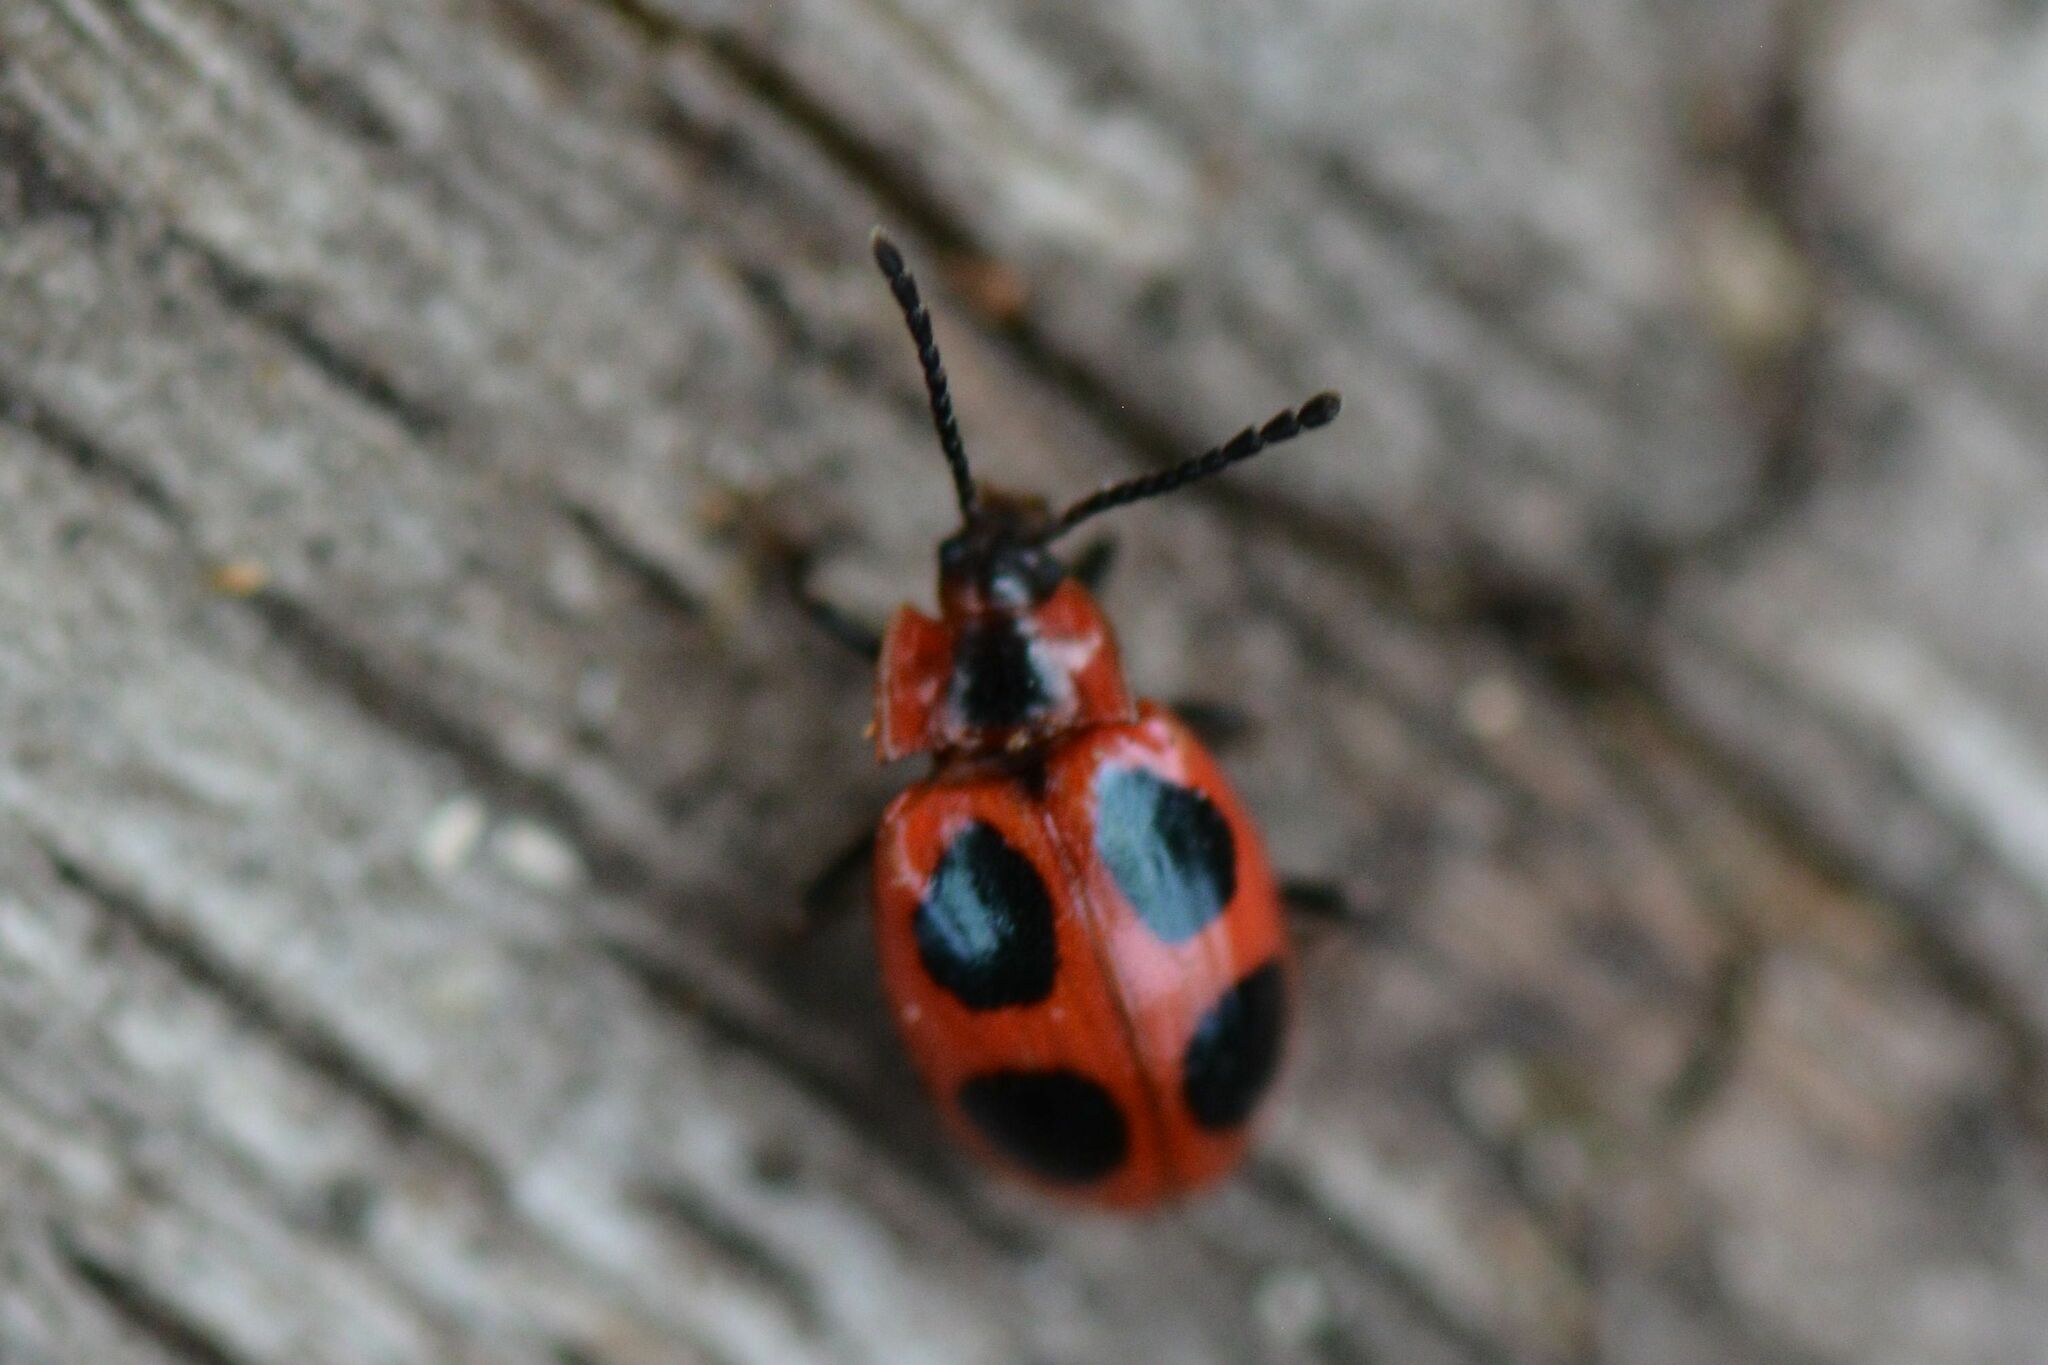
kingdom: Animalia
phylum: Arthropoda
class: Insecta
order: Coleoptera
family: Endomychidae
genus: Endomychus
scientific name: Endomychus coccineus
